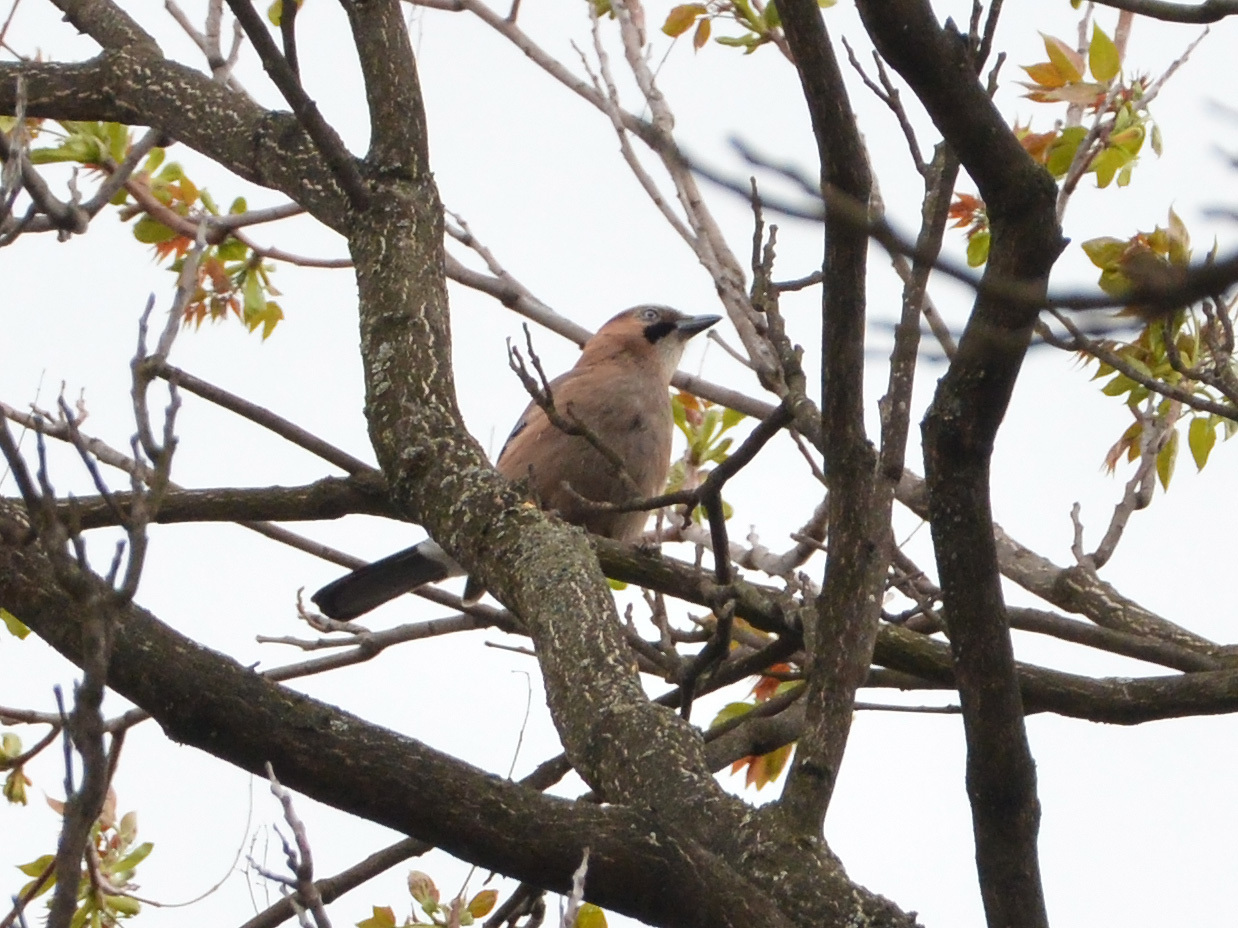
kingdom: Animalia
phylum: Chordata
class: Aves
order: Passeriformes
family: Corvidae
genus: Garrulus
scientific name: Garrulus glandarius
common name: Eurasian jay
